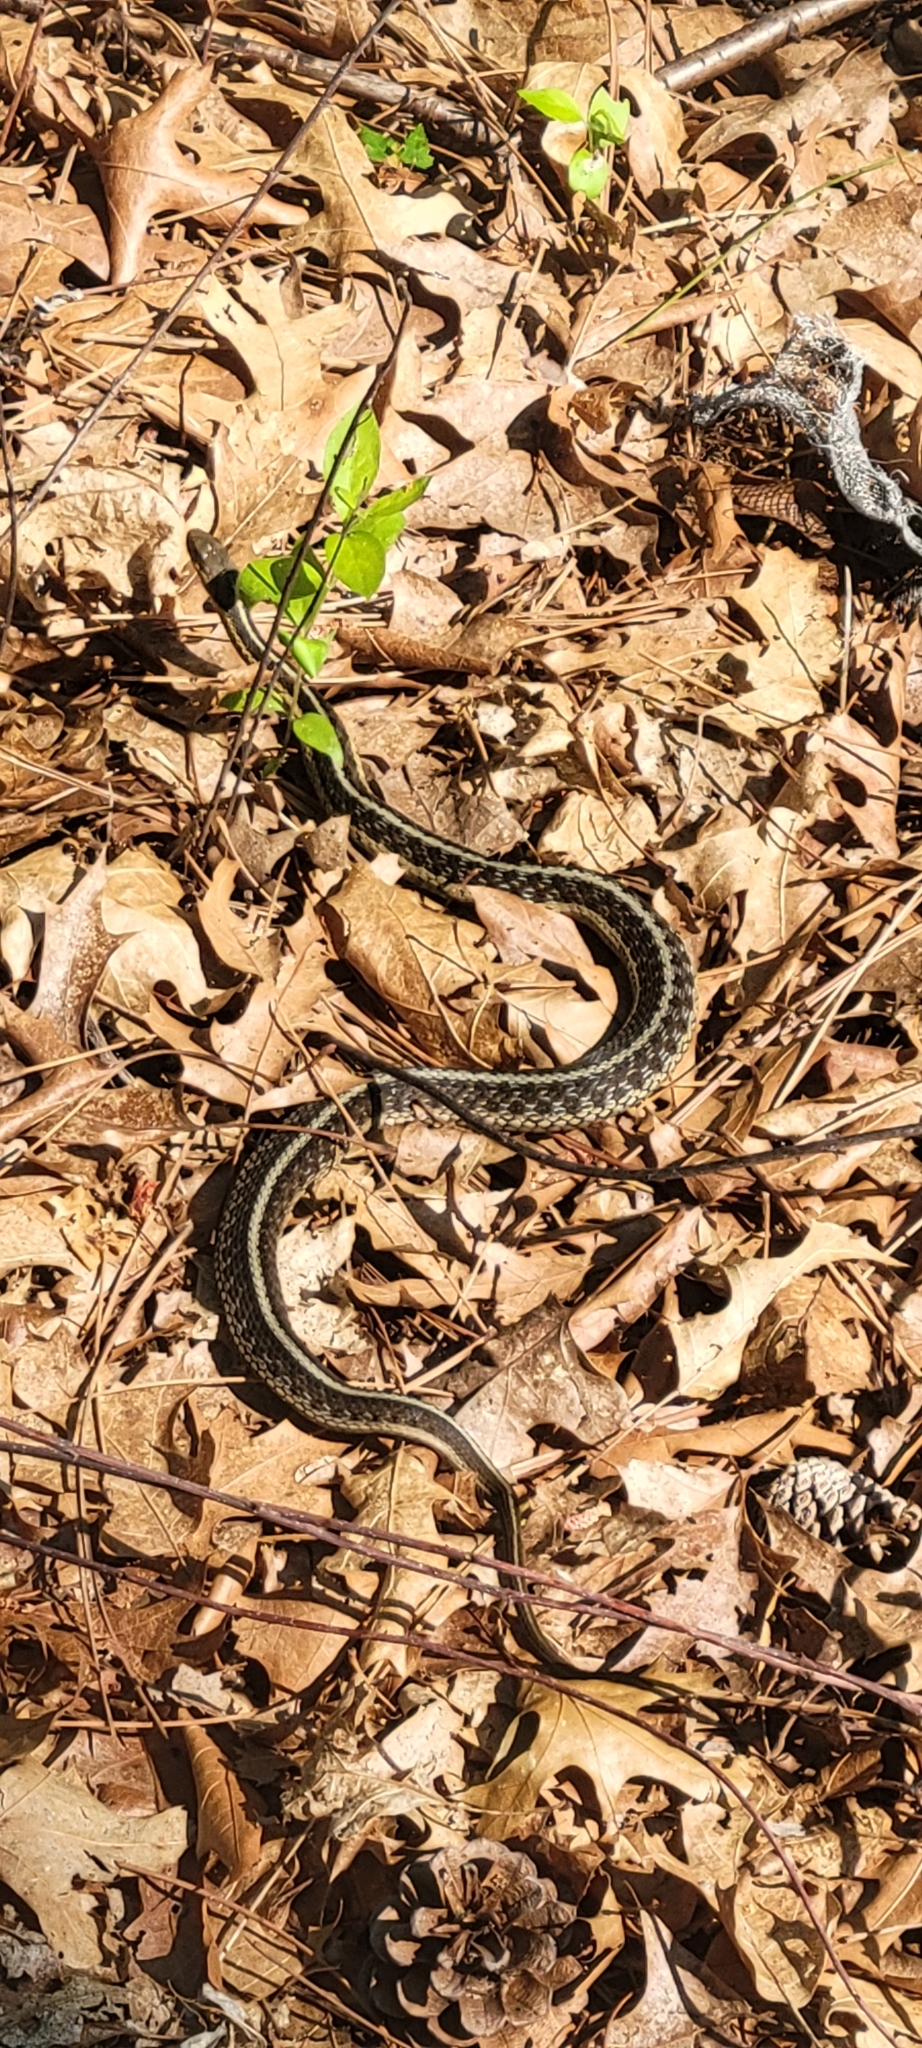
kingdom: Animalia
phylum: Chordata
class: Squamata
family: Colubridae
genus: Thamnophis
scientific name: Thamnophis sirtalis
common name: Common garter snake
